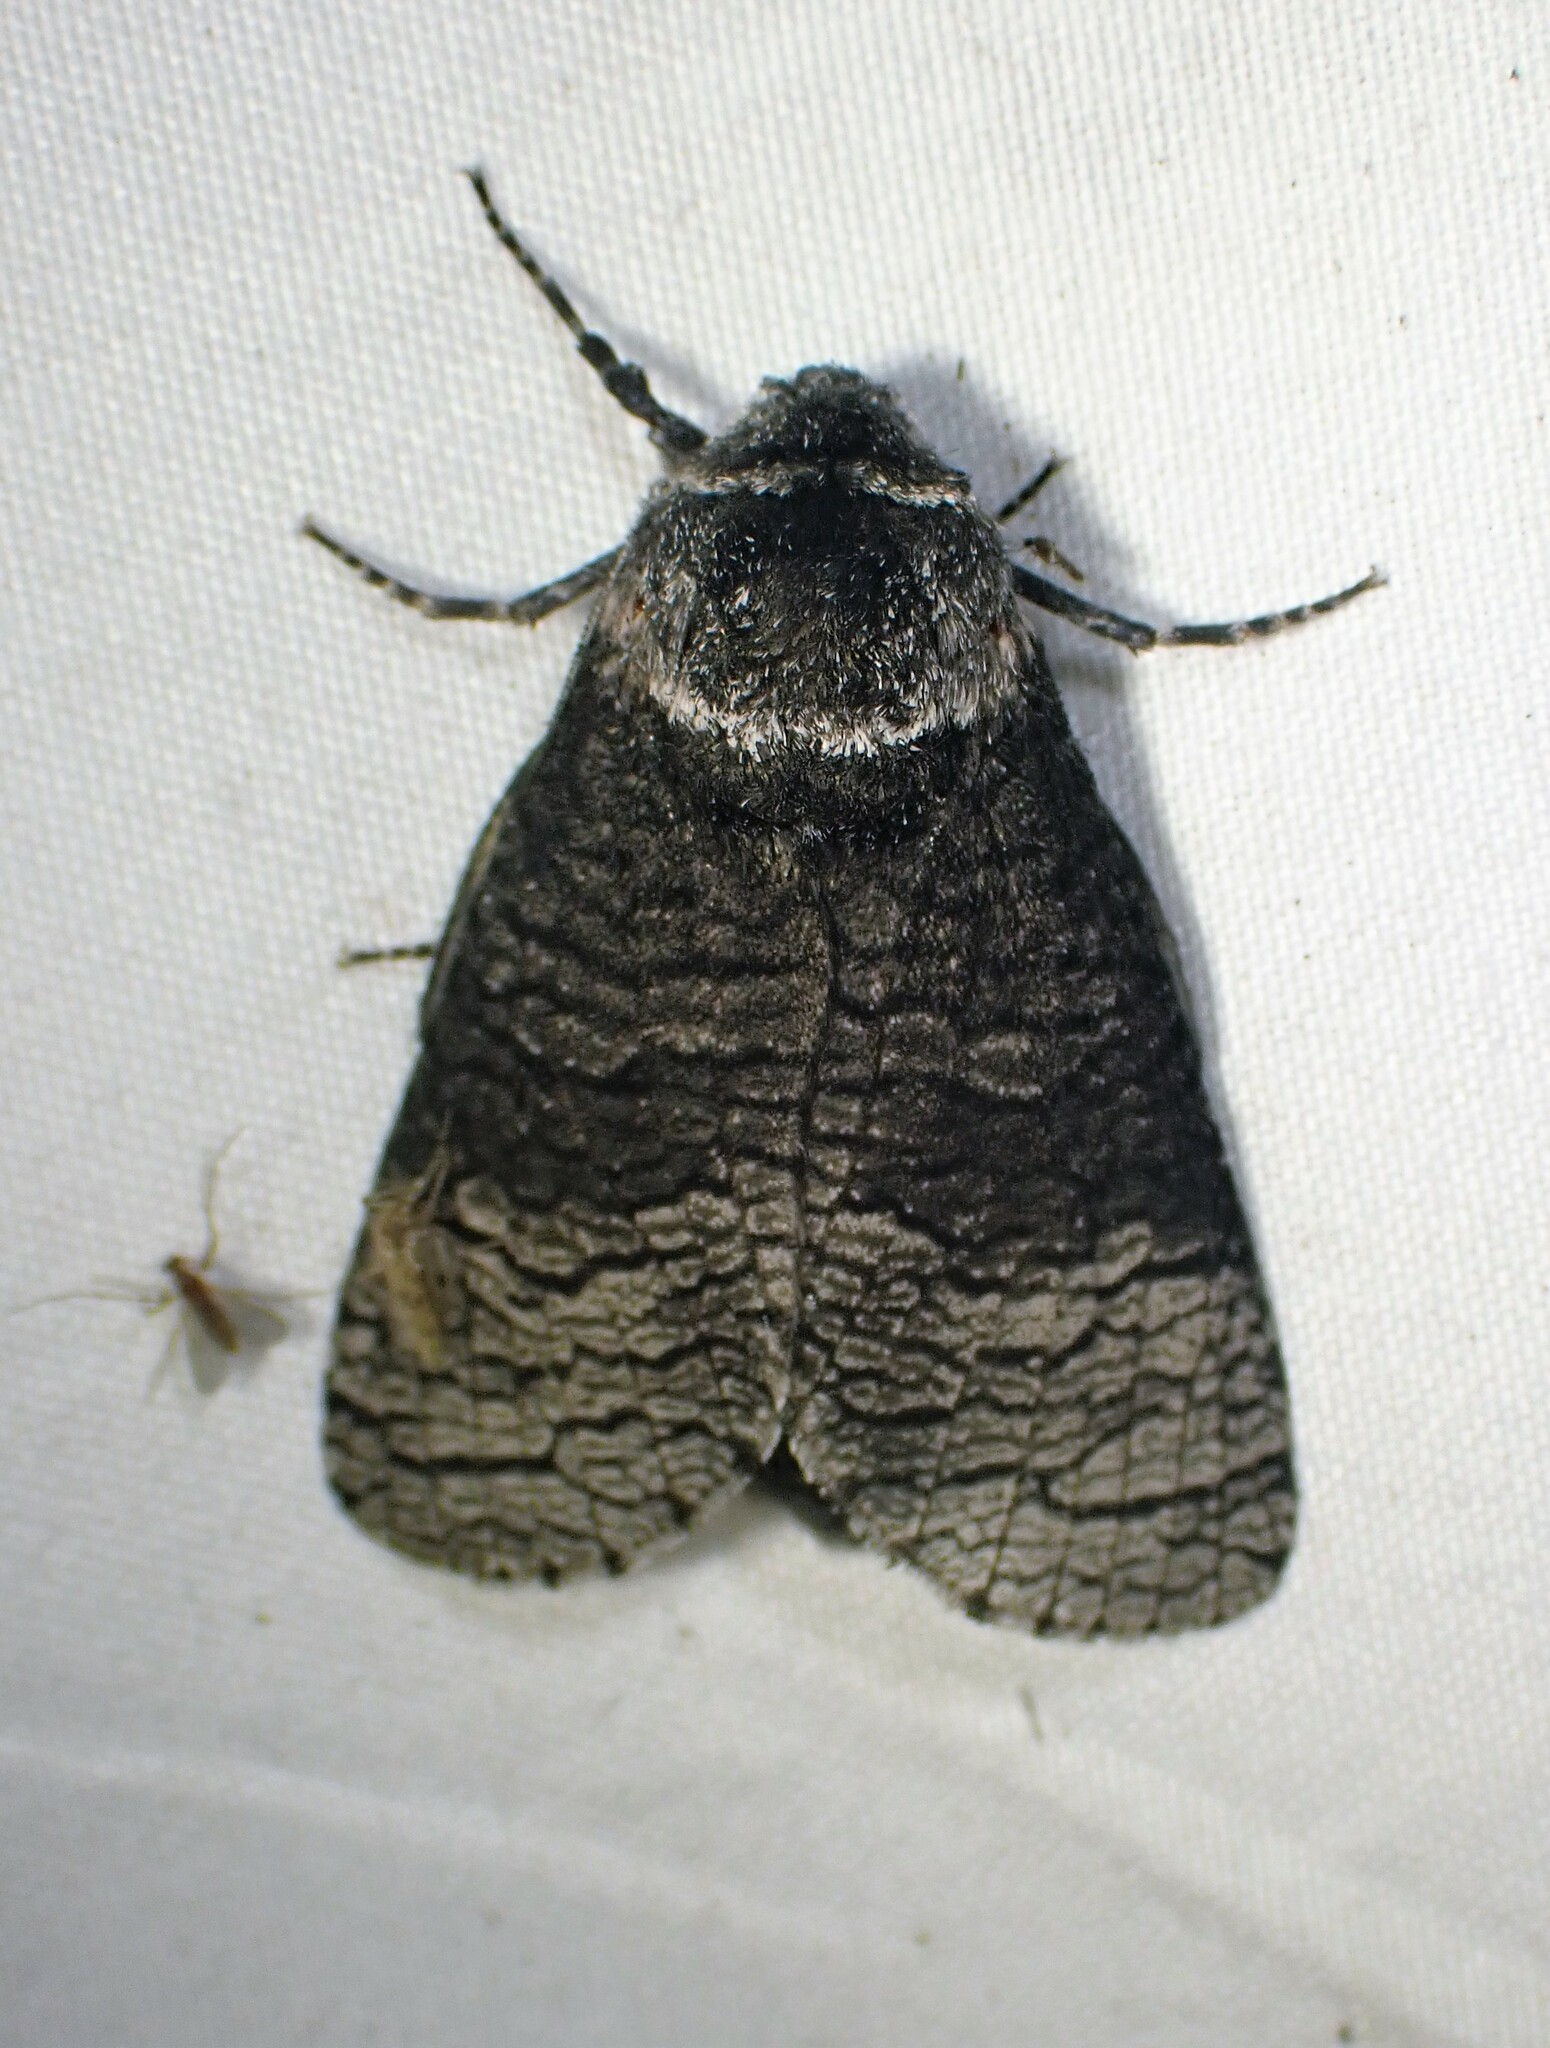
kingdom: Animalia
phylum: Arthropoda
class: Insecta
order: Lepidoptera
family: Cossidae
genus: Acossus
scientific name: Acossus centerensis
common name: Poplar carpenterworm moth
